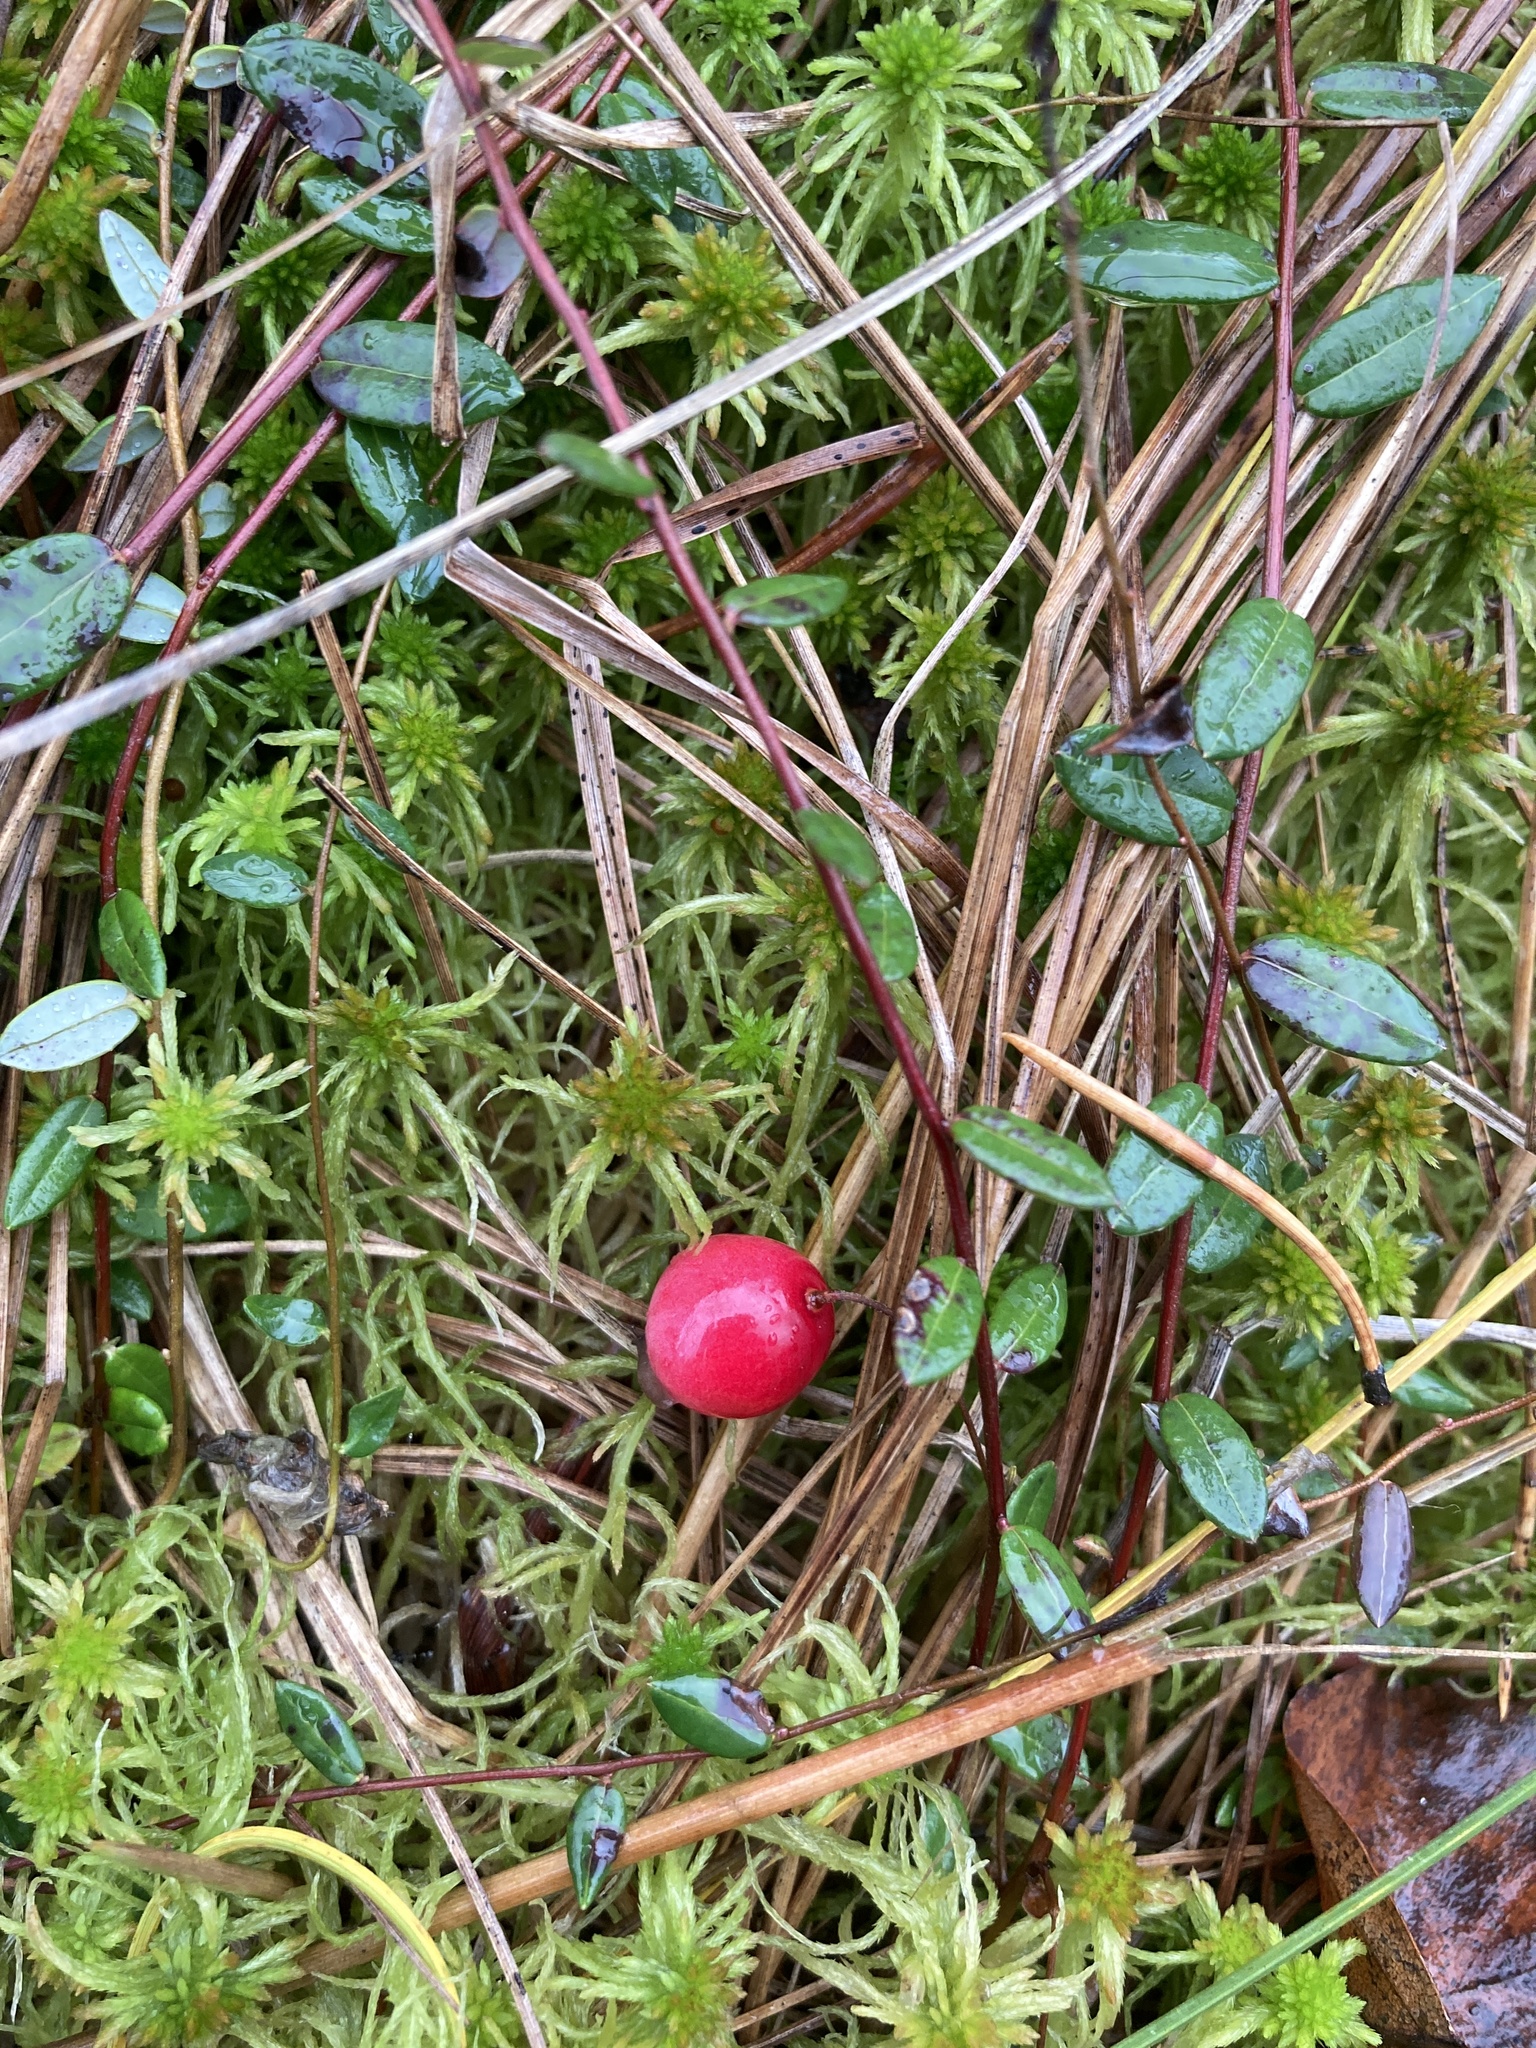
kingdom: Plantae
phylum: Tracheophyta
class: Magnoliopsida
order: Ericales
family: Ericaceae
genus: Vaccinium
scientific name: Vaccinium oxycoccos
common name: Cranberry
